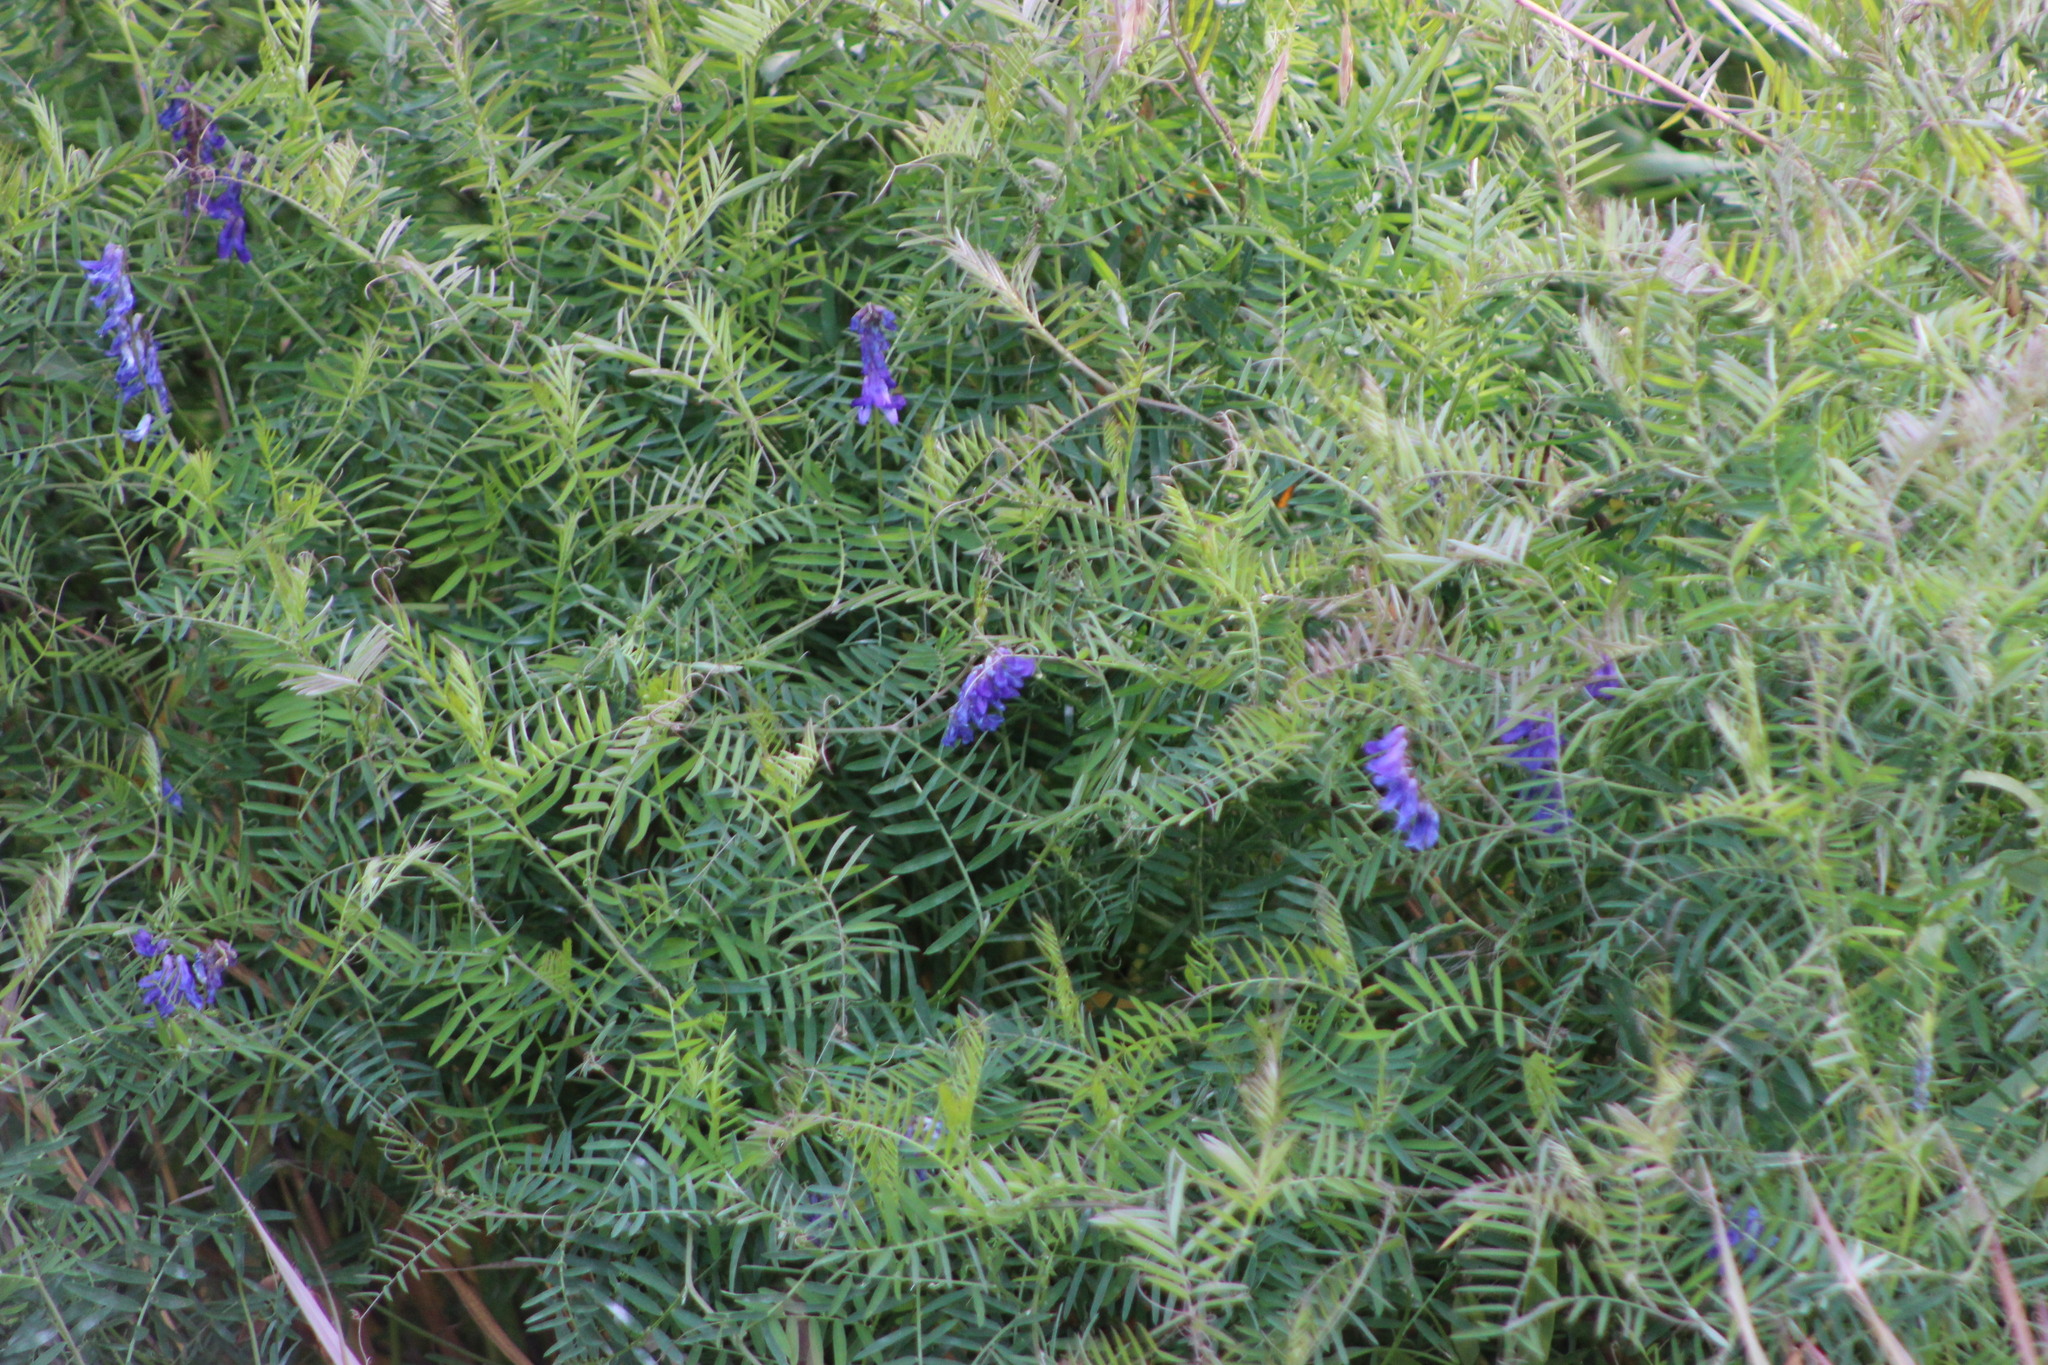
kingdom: Plantae
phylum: Tracheophyta
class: Magnoliopsida
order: Fabales
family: Fabaceae
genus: Vicia
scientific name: Vicia cracca
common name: Bird vetch
